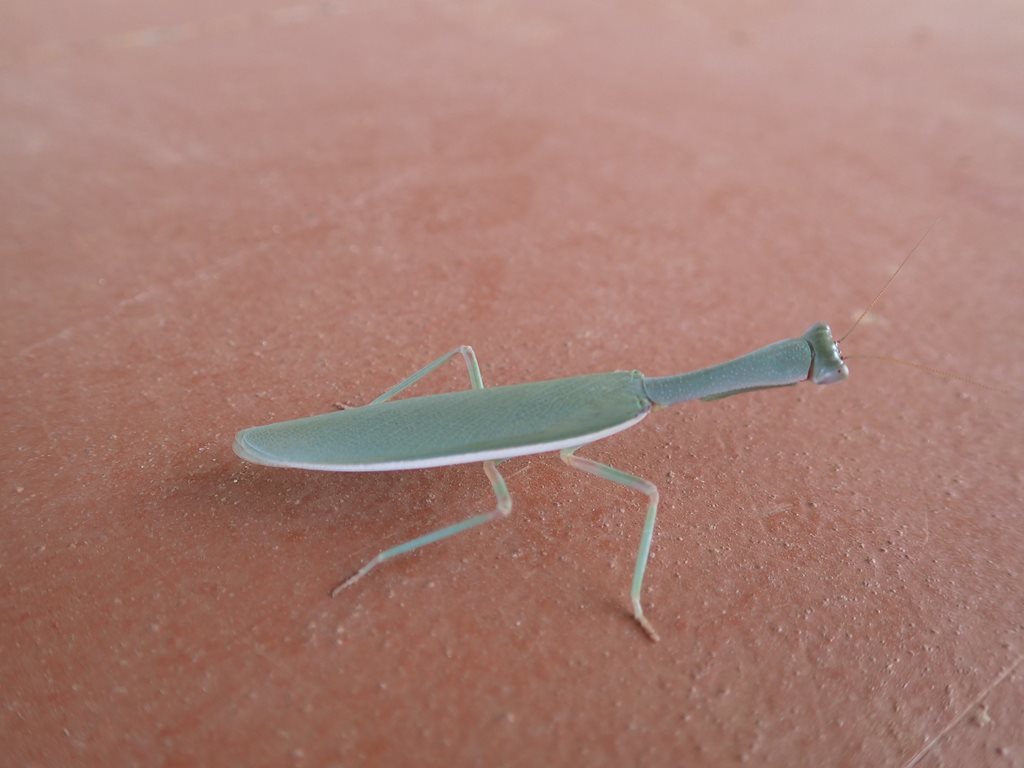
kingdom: Animalia
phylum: Arthropoda
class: Insecta
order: Mantodea
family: Mantidae
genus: Orthodera
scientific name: Orthodera gunni
